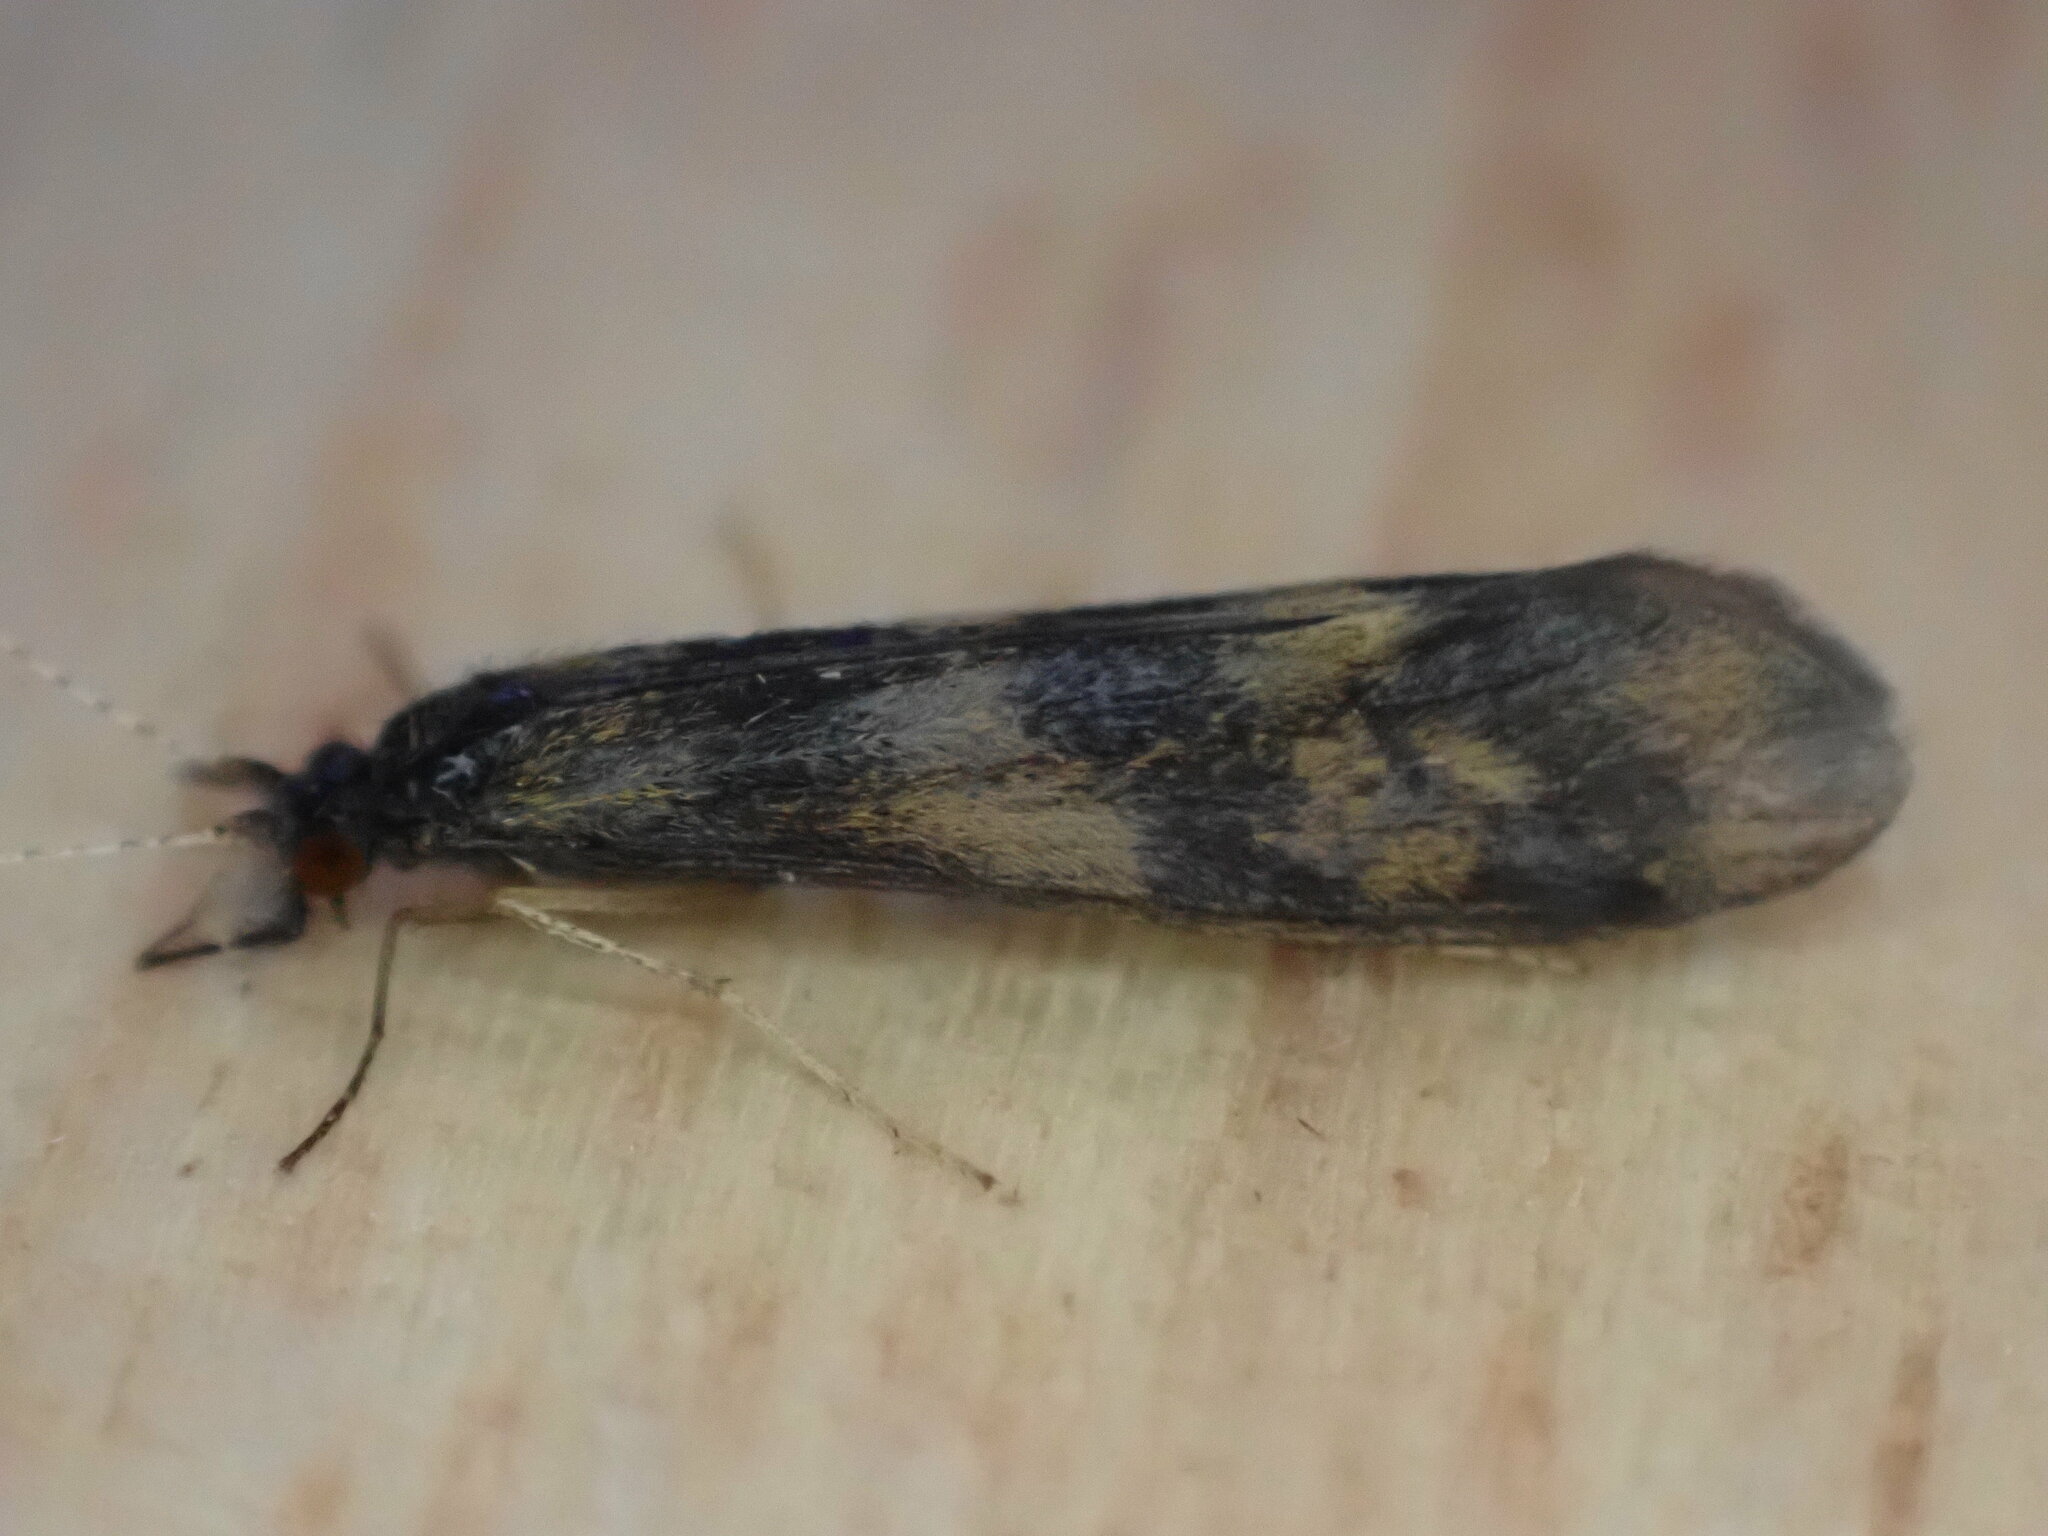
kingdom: Animalia
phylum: Arthropoda
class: Insecta
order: Trichoptera
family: Leptoceridae
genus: Mystacides
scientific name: Mystacides longicornis
